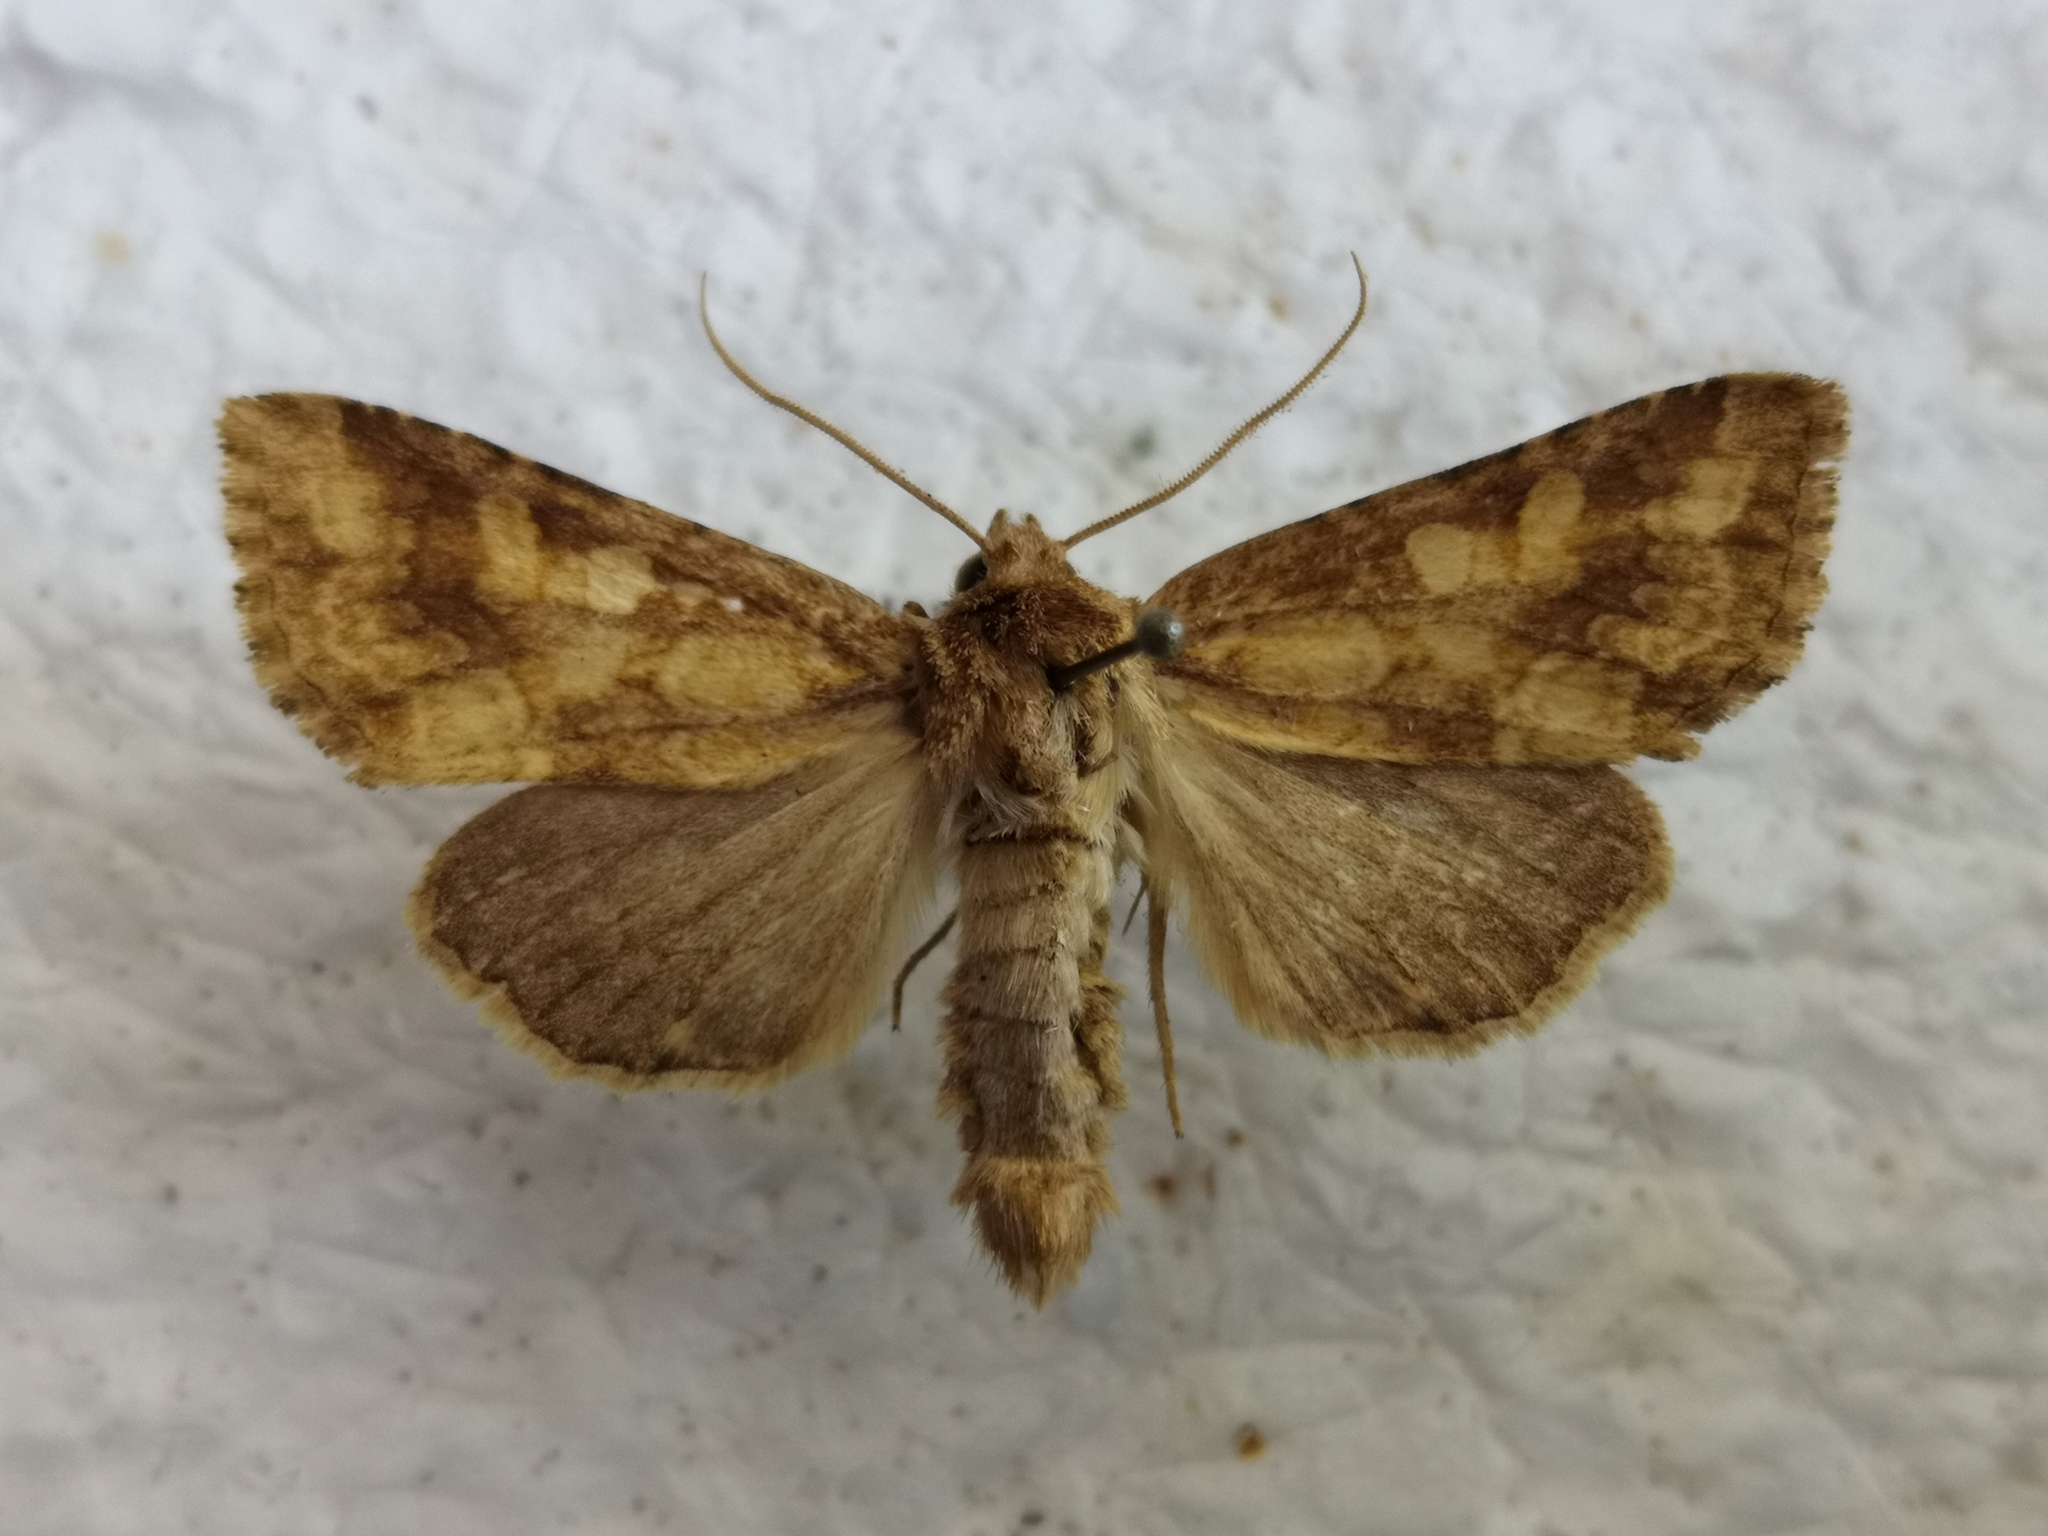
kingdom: Animalia
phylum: Arthropoda
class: Insecta
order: Lepidoptera
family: Noctuidae
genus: Conisania
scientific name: Conisania luteago
